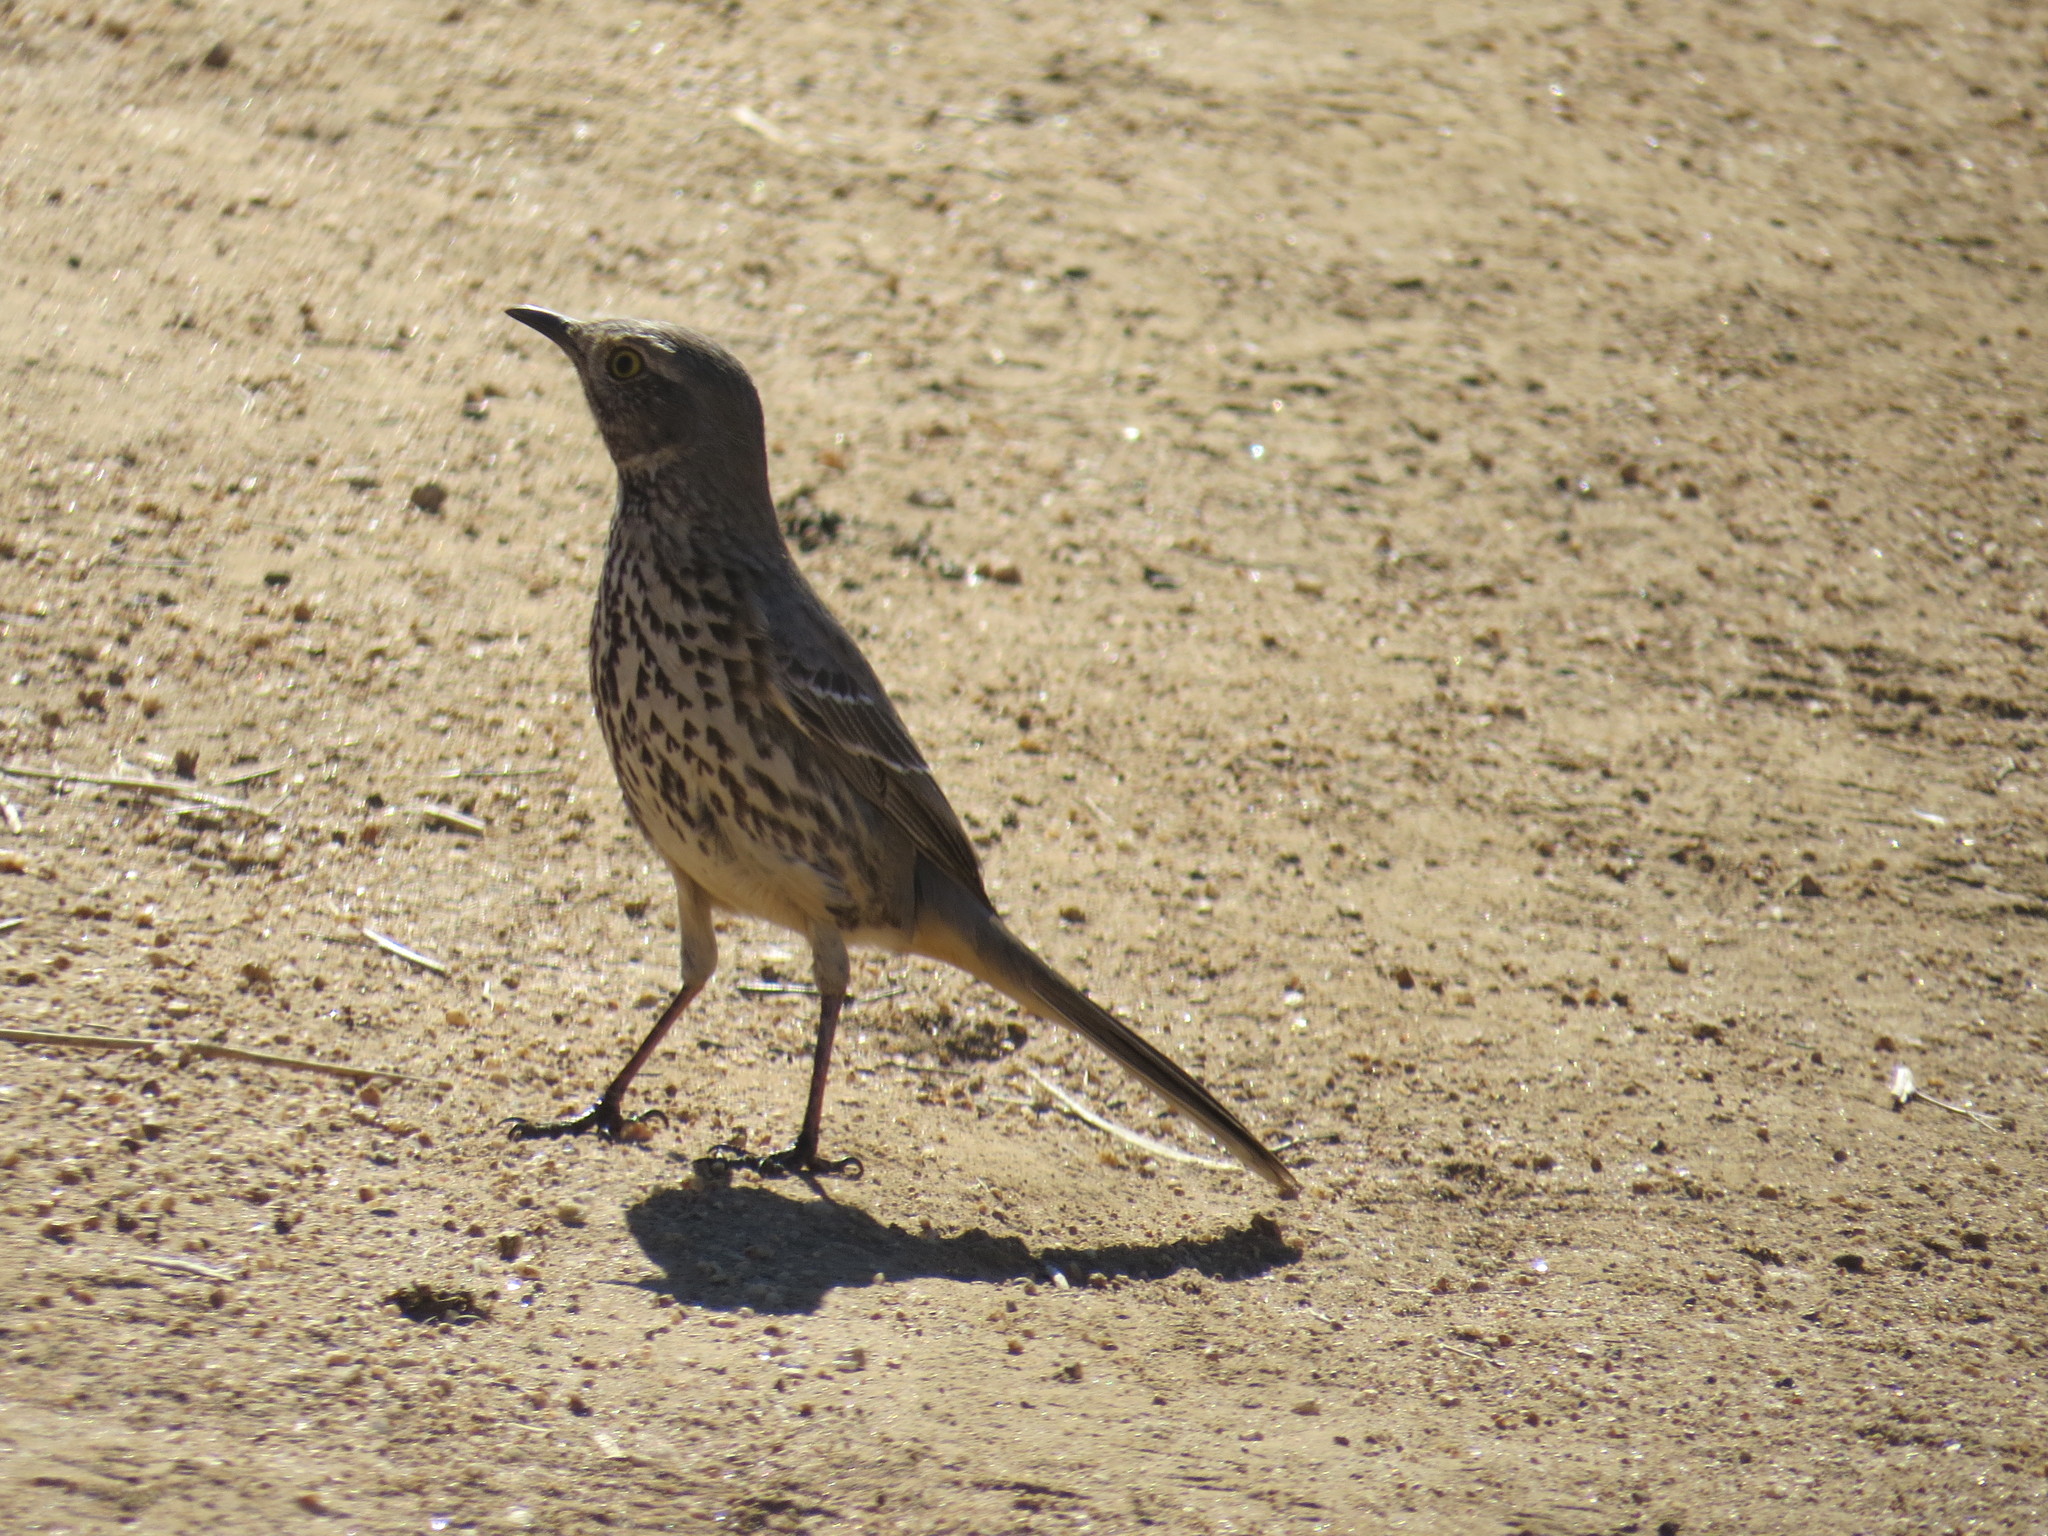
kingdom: Animalia
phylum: Chordata
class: Aves
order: Passeriformes
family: Mimidae
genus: Oreoscoptes
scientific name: Oreoscoptes montanus
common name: Sage thrasher
